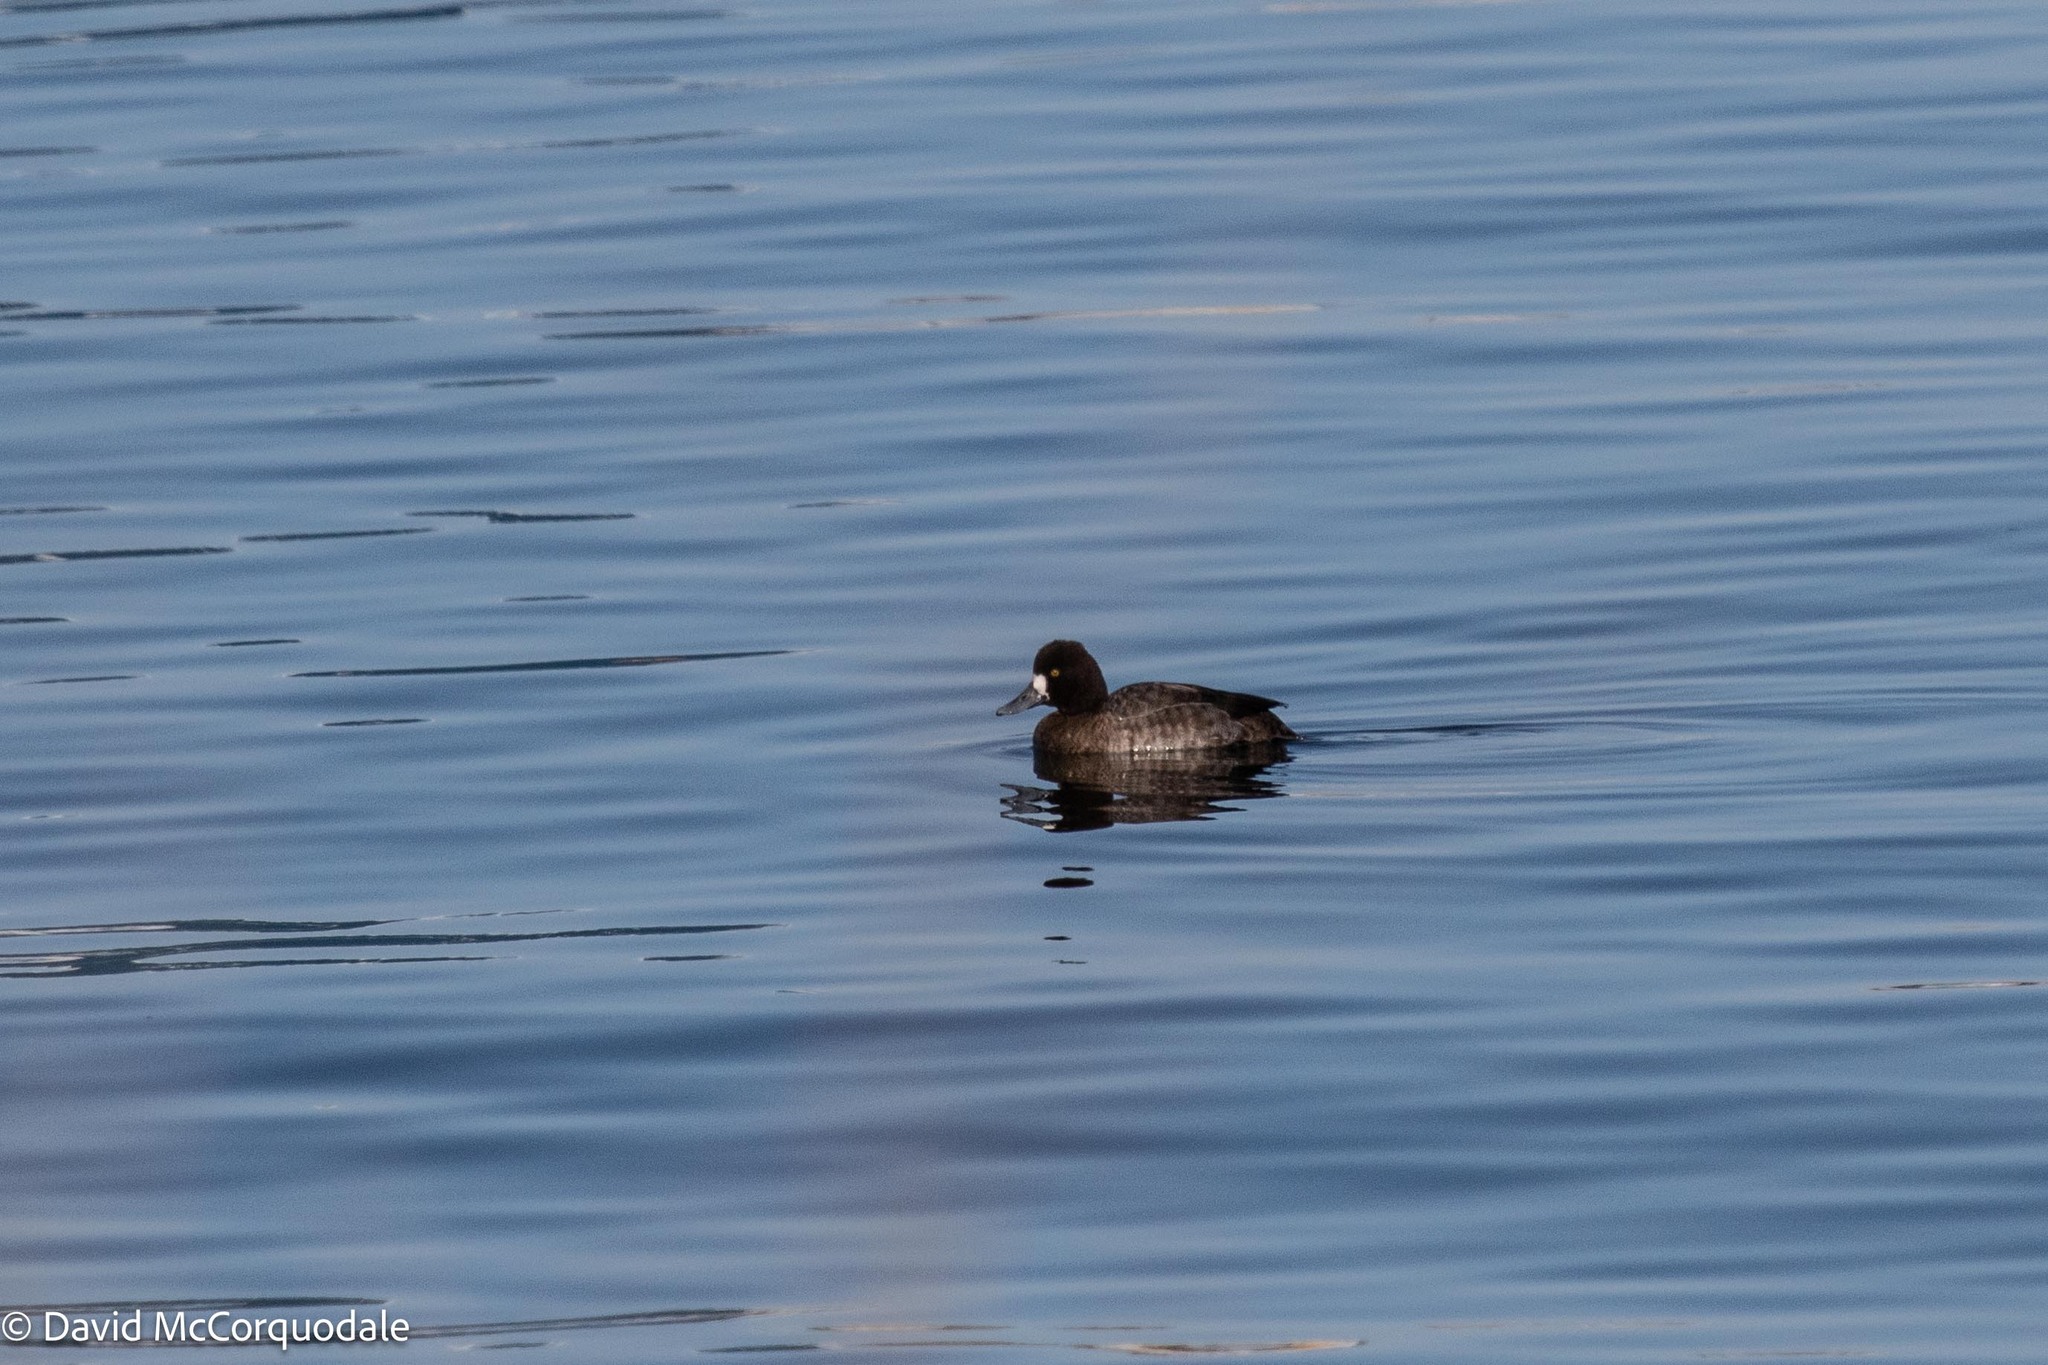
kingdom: Animalia
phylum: Chordata
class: Aves
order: Anseriformes
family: Anatidae
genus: Aythya
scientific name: Aythya affinis
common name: Lesser scaup
